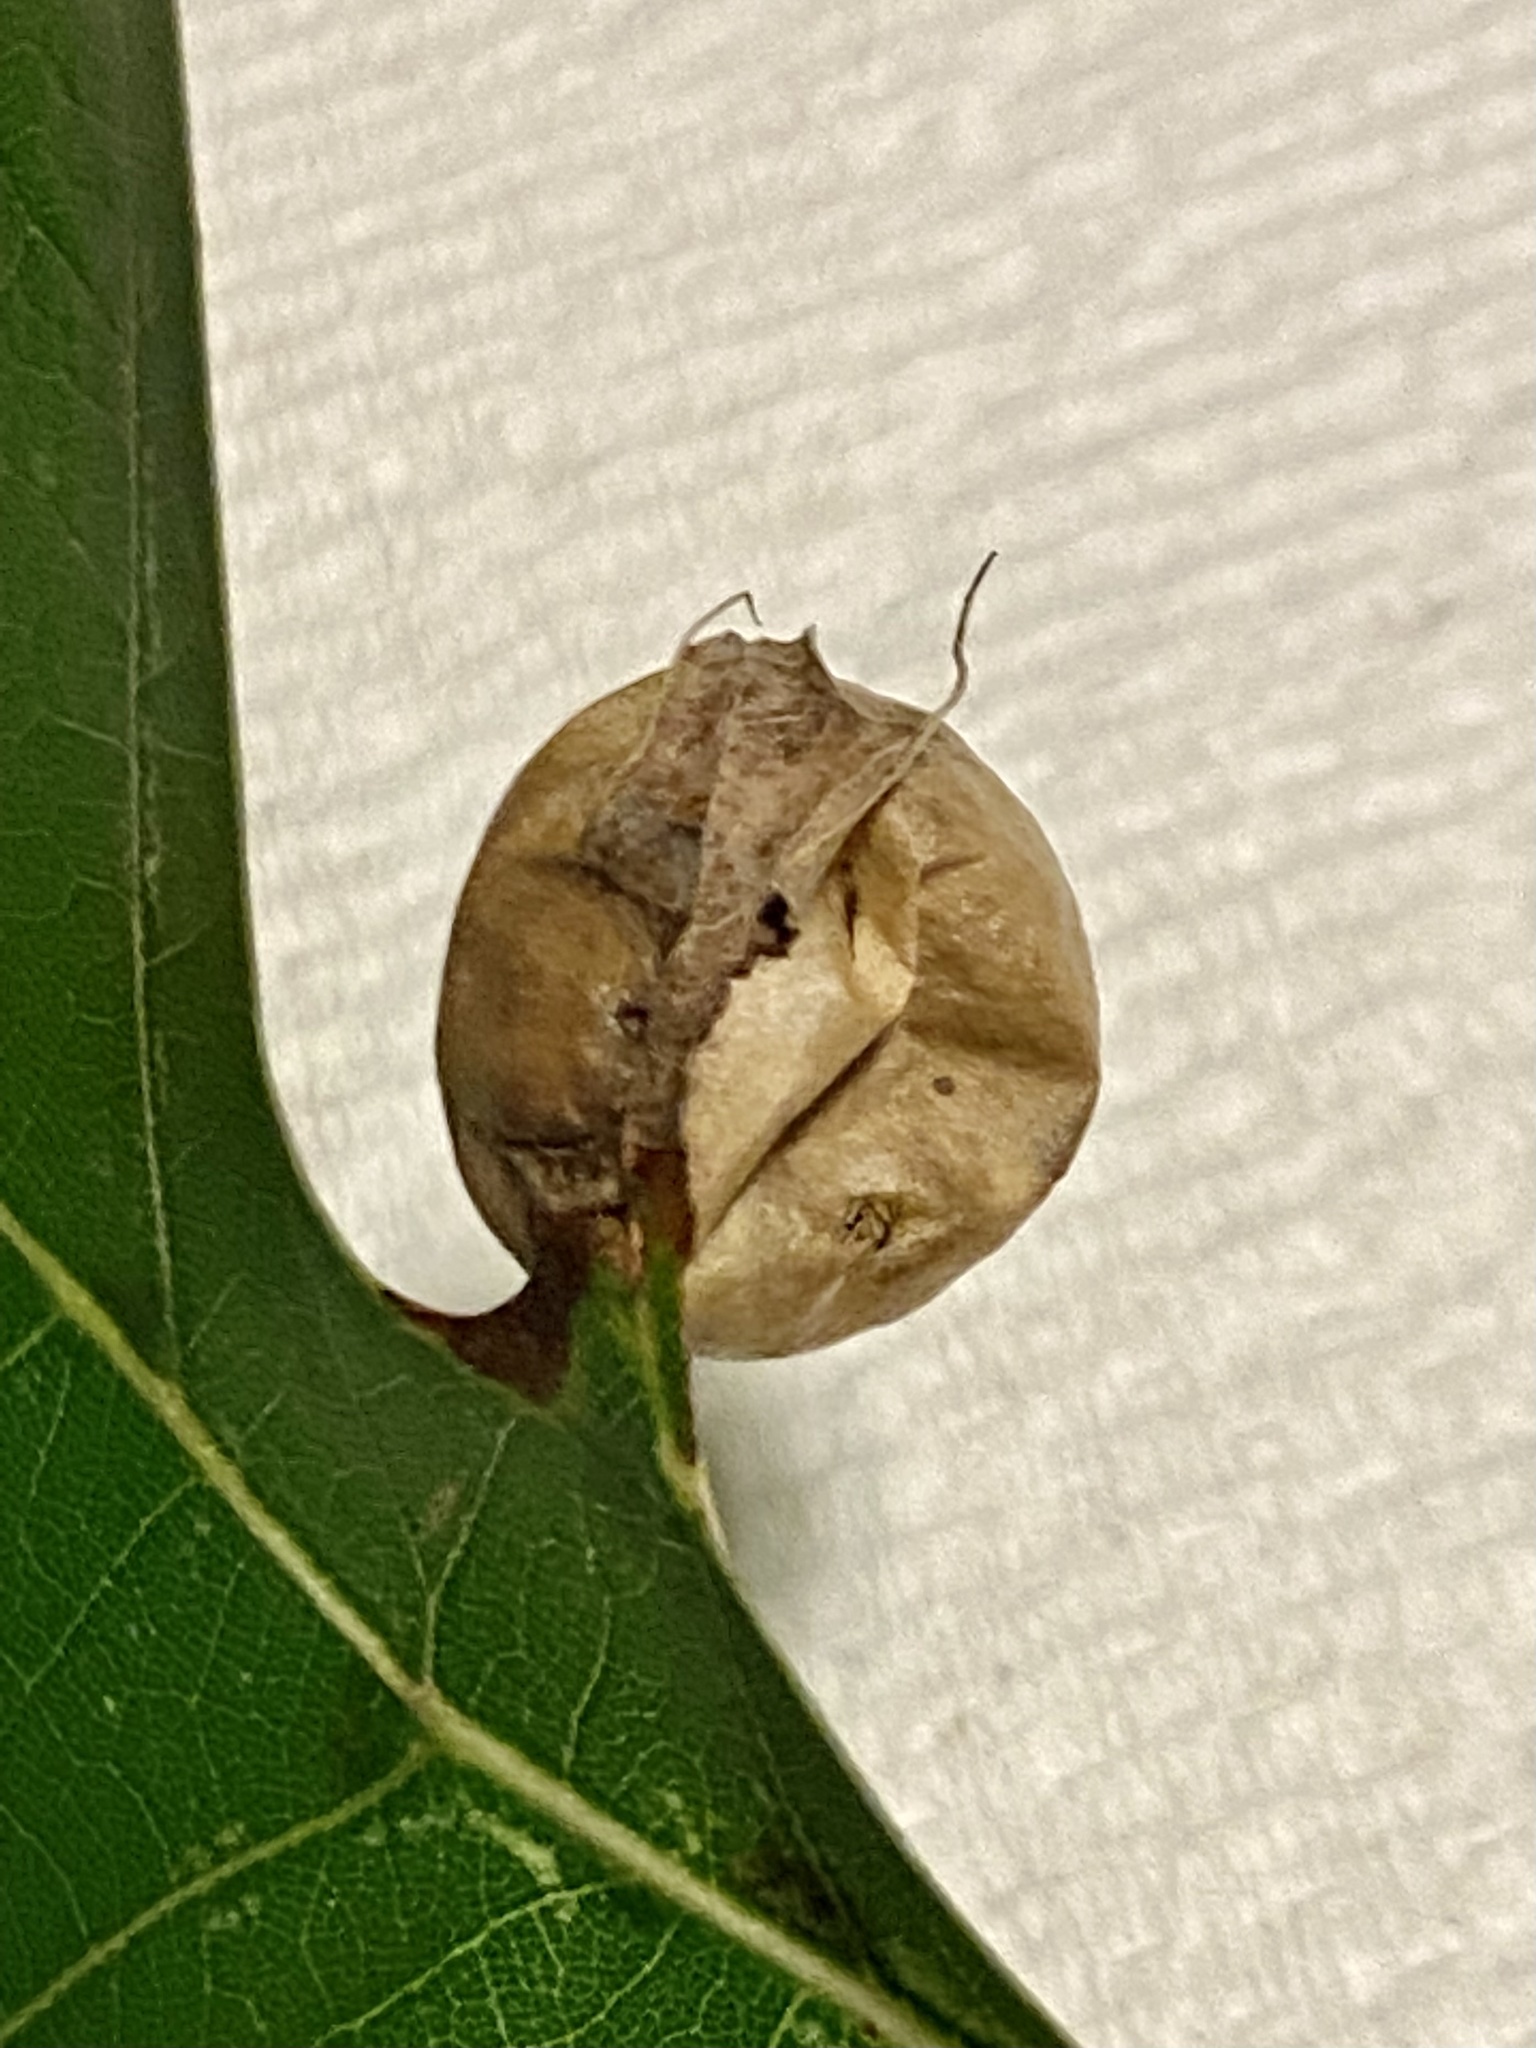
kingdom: Animalia
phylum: Arthropoda
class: Insecta
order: Hymenoptera
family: Cynipidae
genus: Amphibolips
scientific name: Amphibolips
